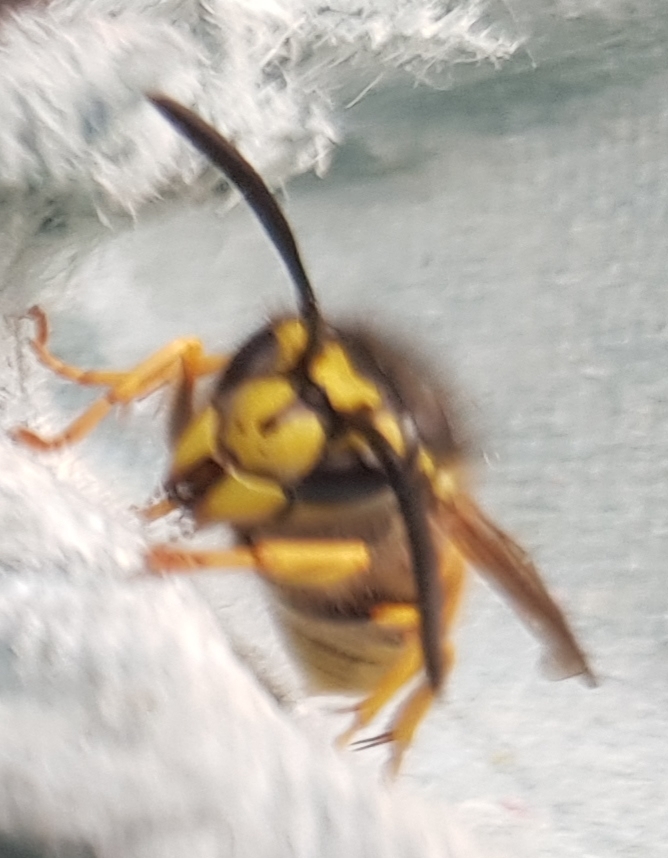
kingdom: Animalia
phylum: Arthropoda
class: Insecta
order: Hymenoptera
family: Vespidae
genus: Vespula
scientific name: Vespula germanica
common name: German wasp
